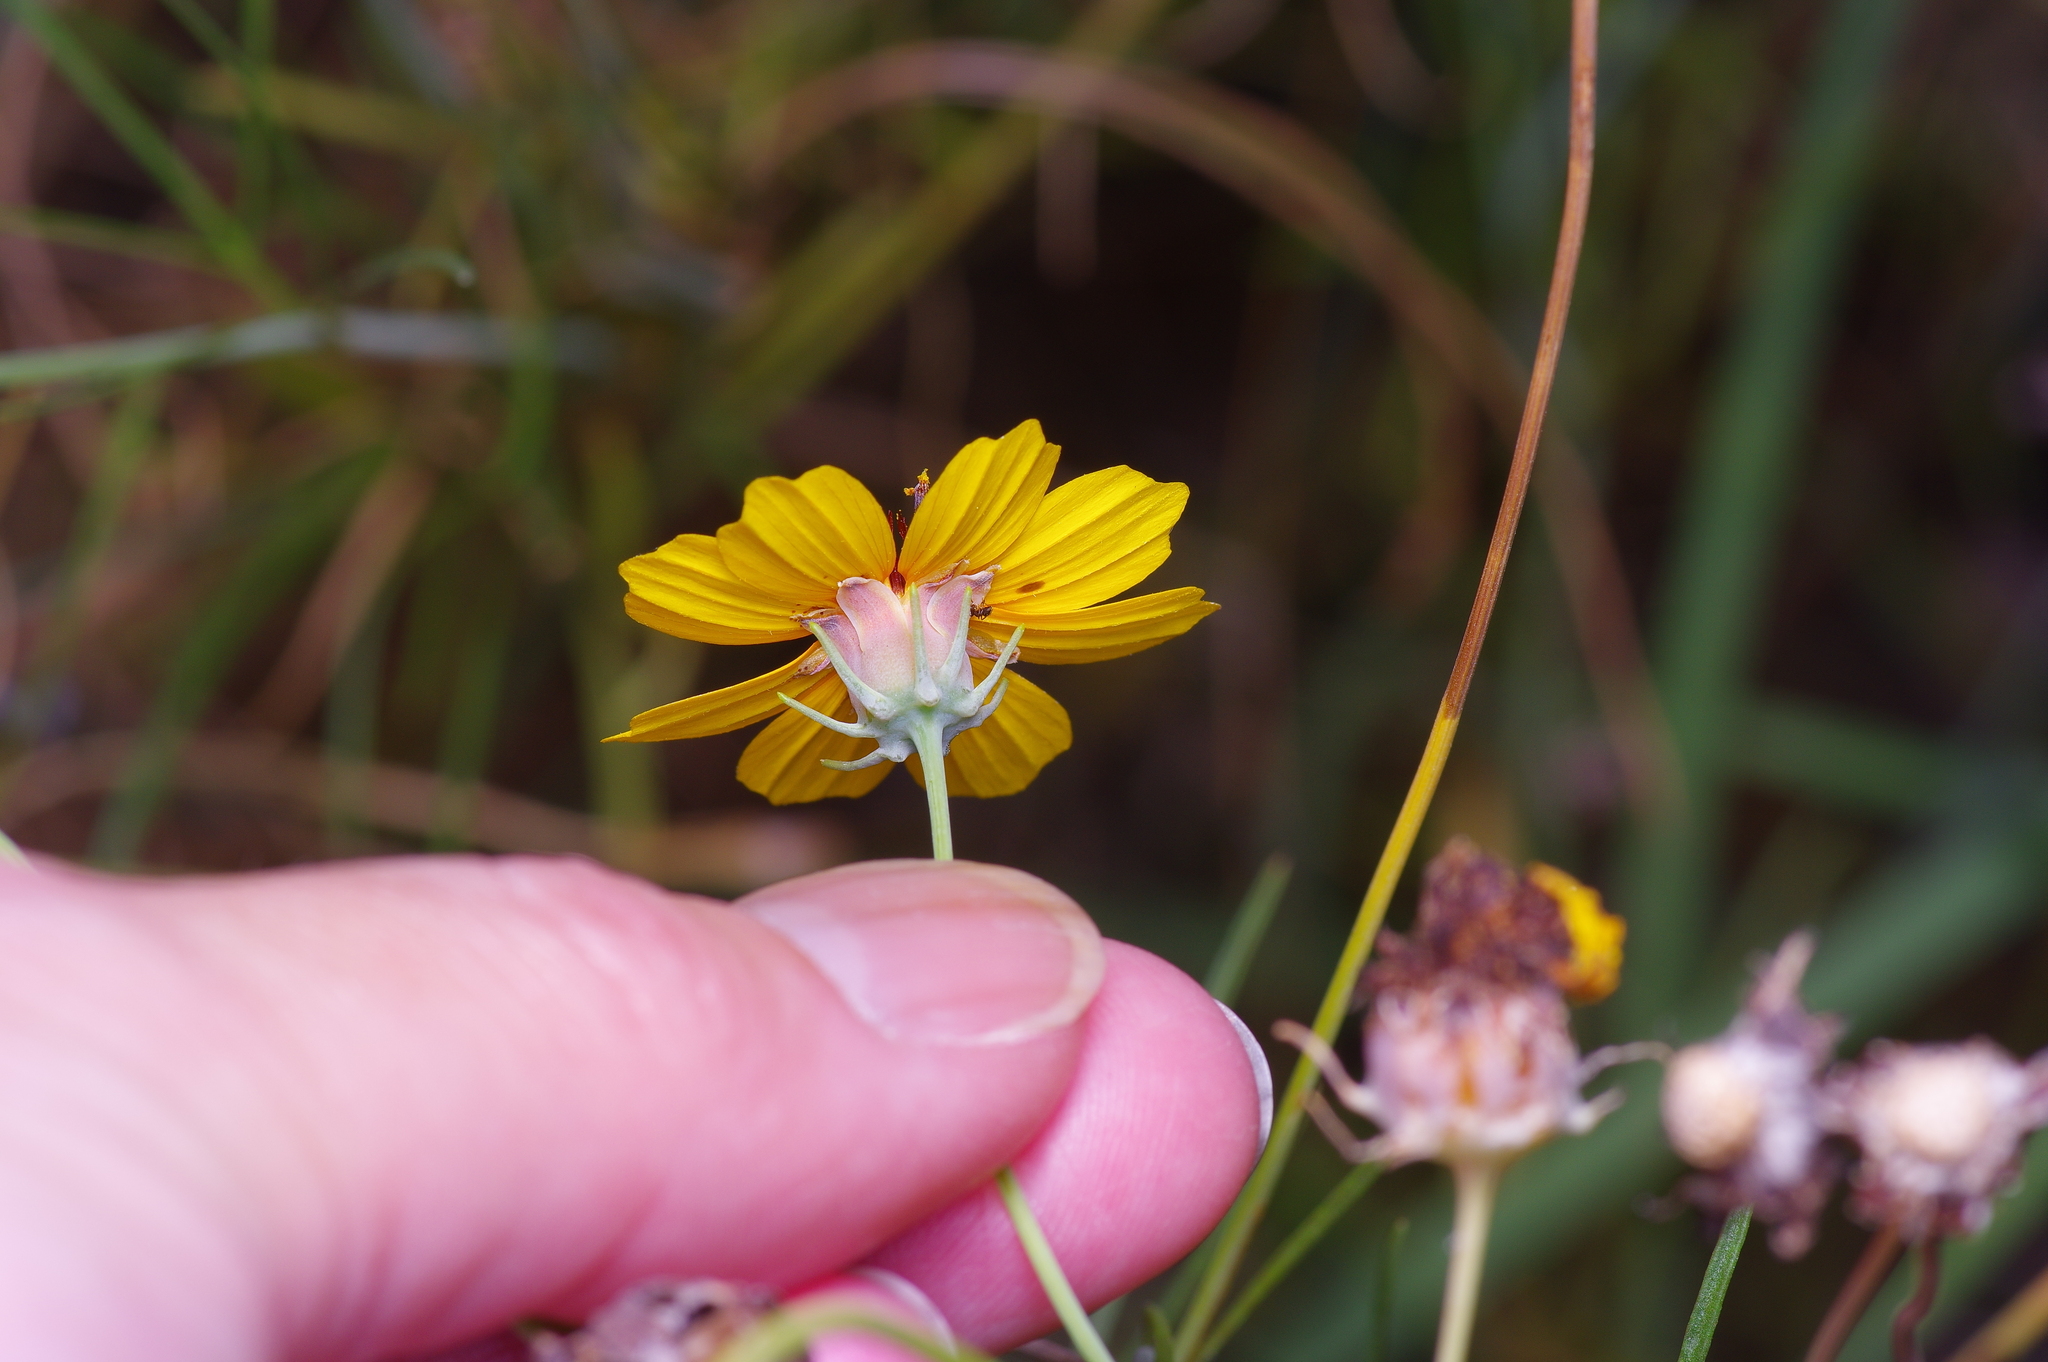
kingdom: Plantae
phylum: Tracheophyta
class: Magnoliopsida
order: Asterales
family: Asteraceae
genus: Thelesperma
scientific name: Thelesperma filifolium
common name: Stiff greenthread
